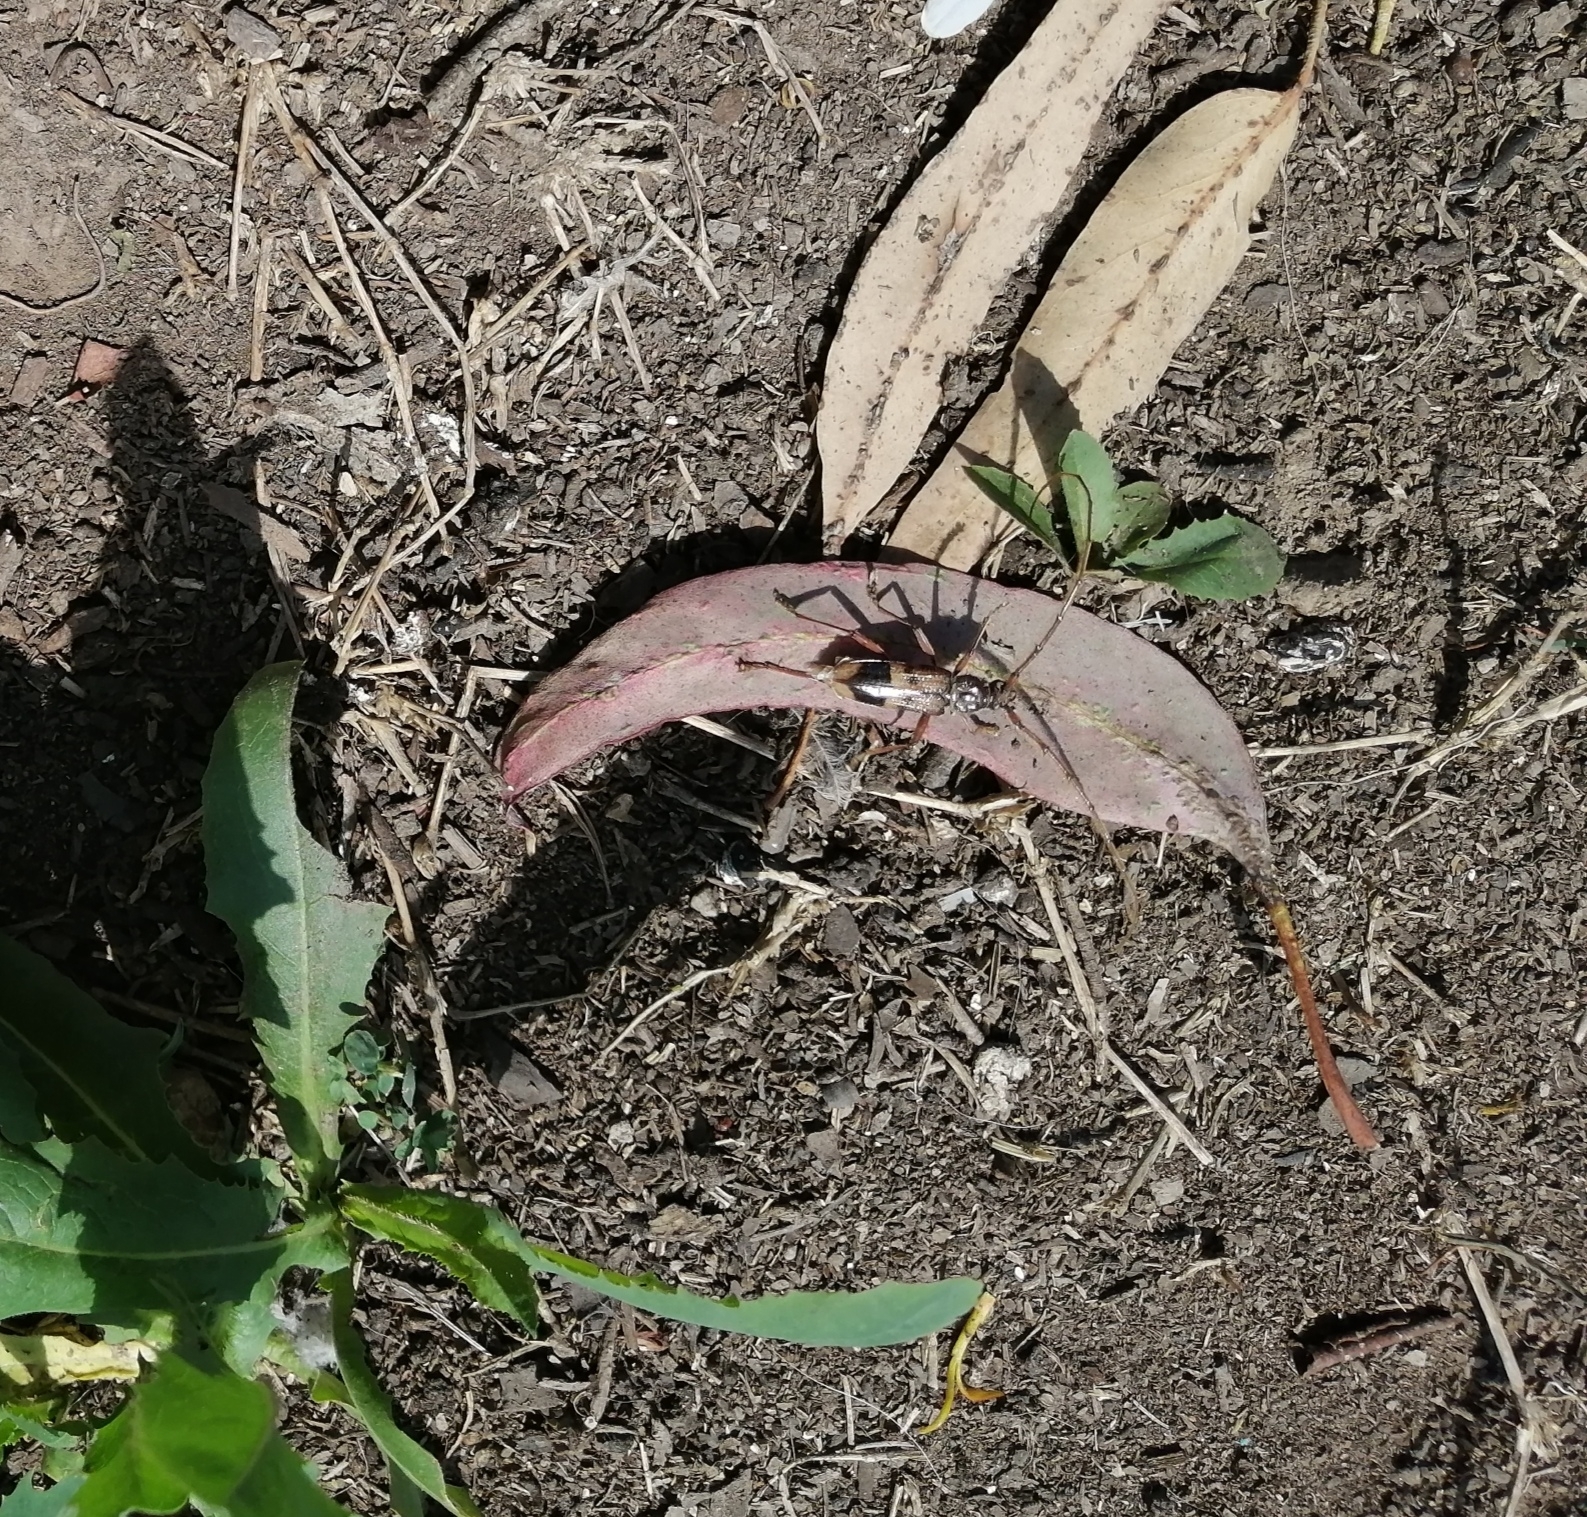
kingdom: Animalia
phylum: Arthropoda
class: Insecta
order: Coleoptera
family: Cerambycidae
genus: Phoracantha
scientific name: Phoracantha recurva
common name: Eucalyptus longhorned borer
